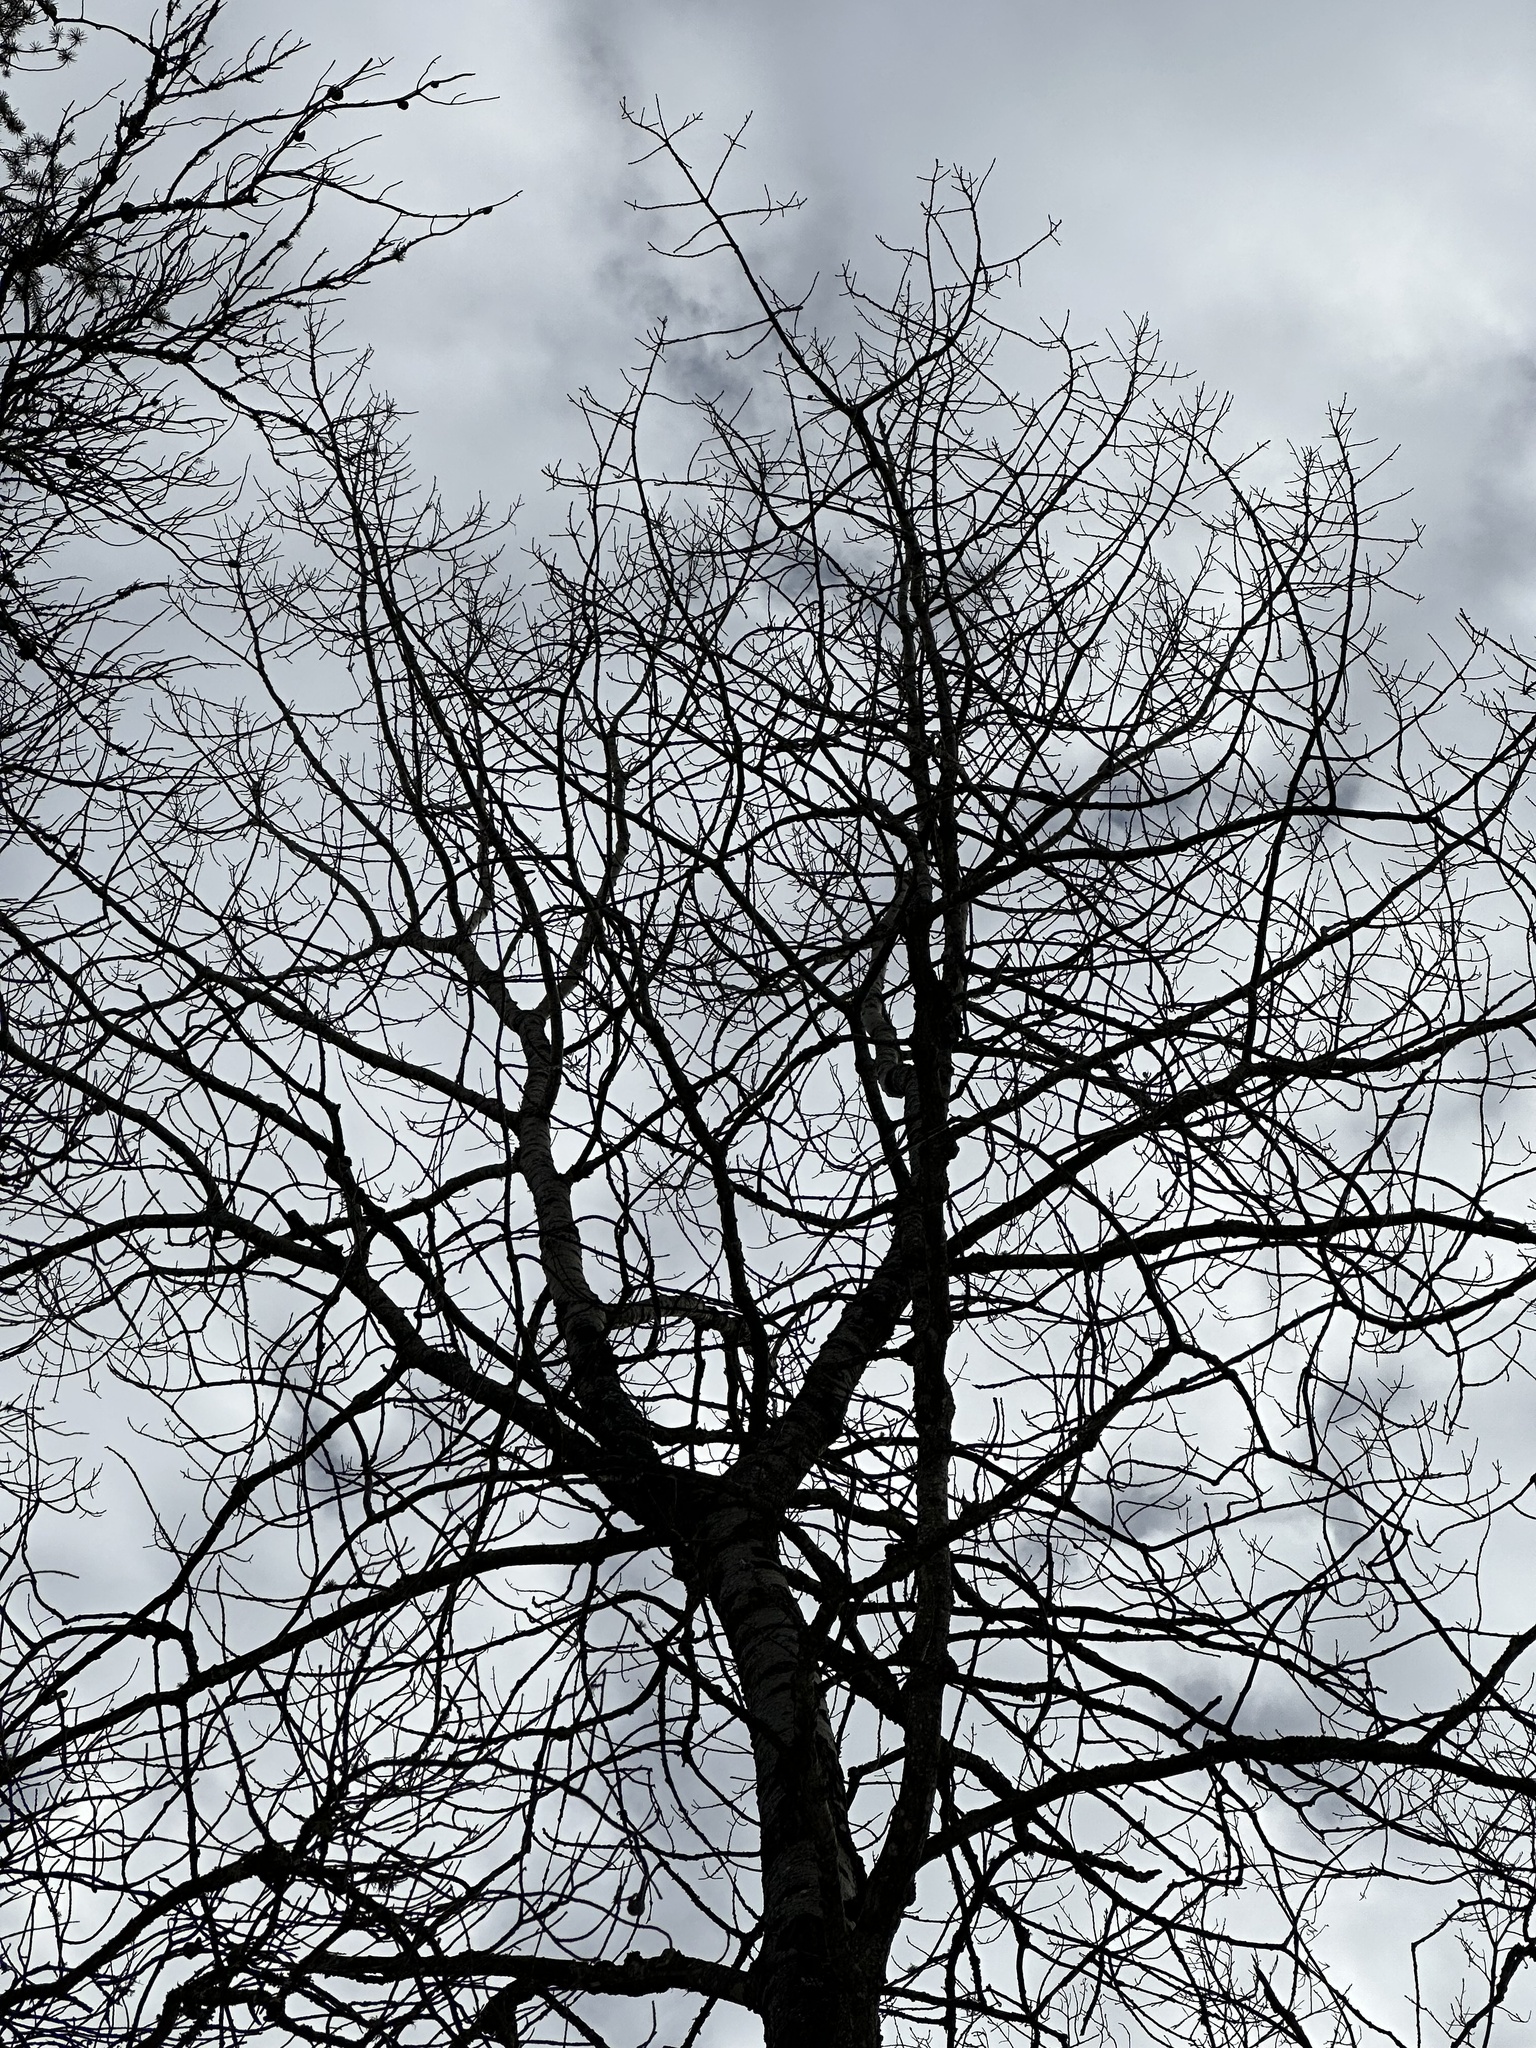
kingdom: Plantae
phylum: Tracheophyta
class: Magnoliopsida
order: Malpighiales
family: Salicaceae
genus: Populus
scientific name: Populus grandidentata
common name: Bigtooth aspen
